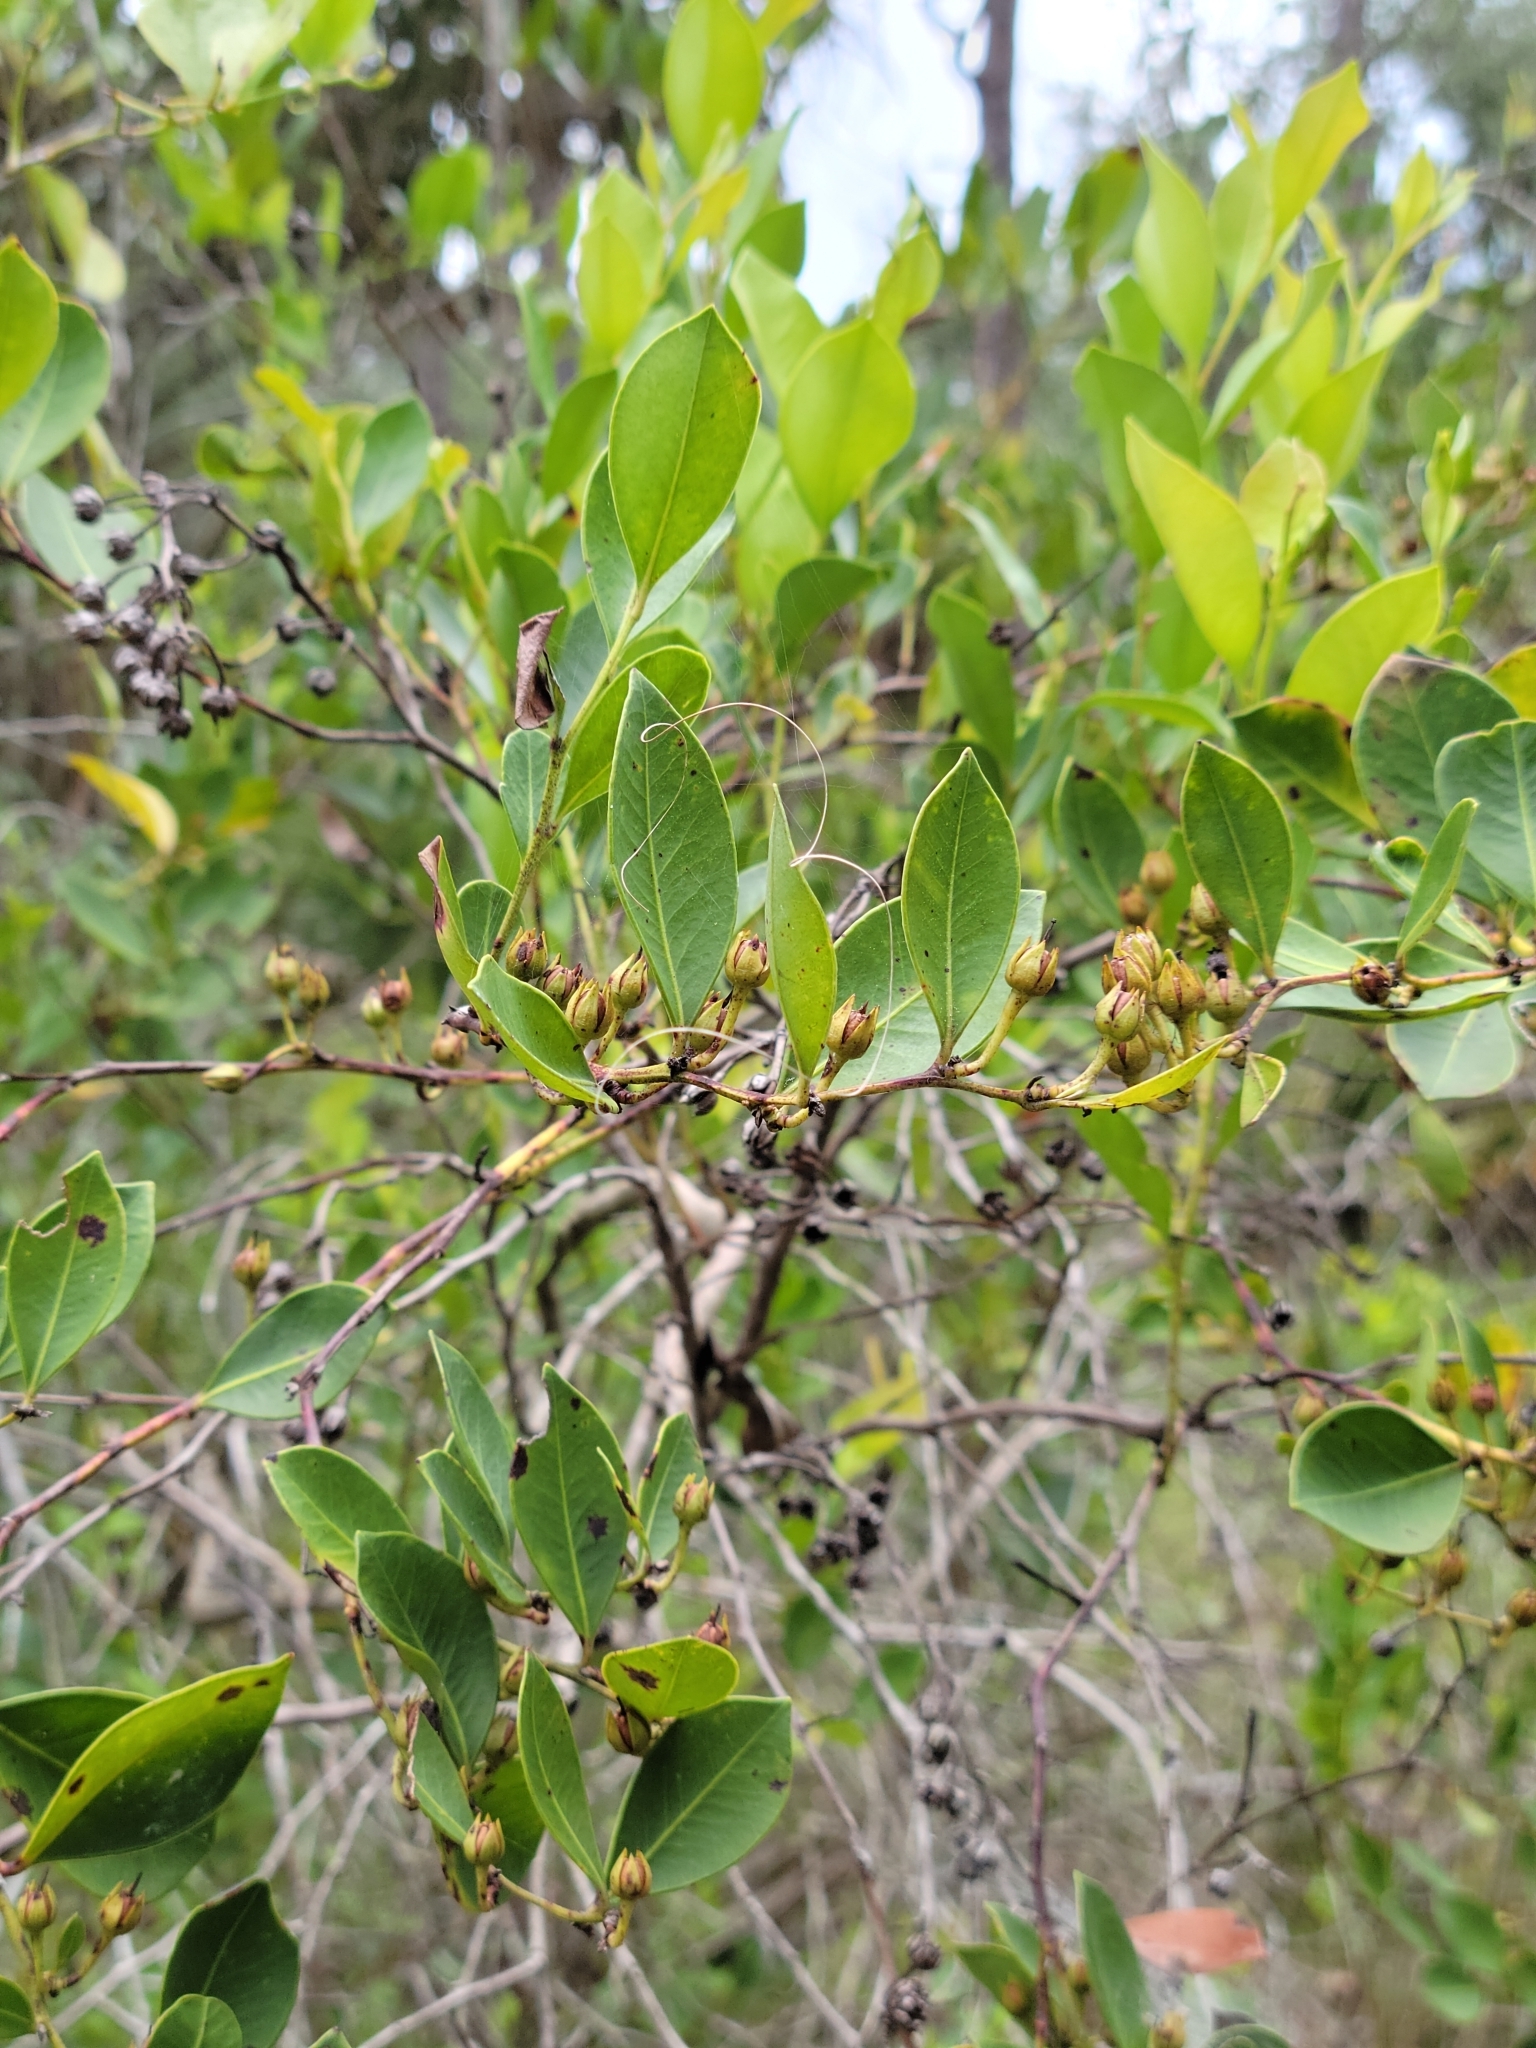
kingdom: Plantae
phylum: Tracheophyta
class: Magnoliopsida
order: Ericales
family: Ericaceae
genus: Lyonia
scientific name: Lyonia lucida
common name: Fetterbush
